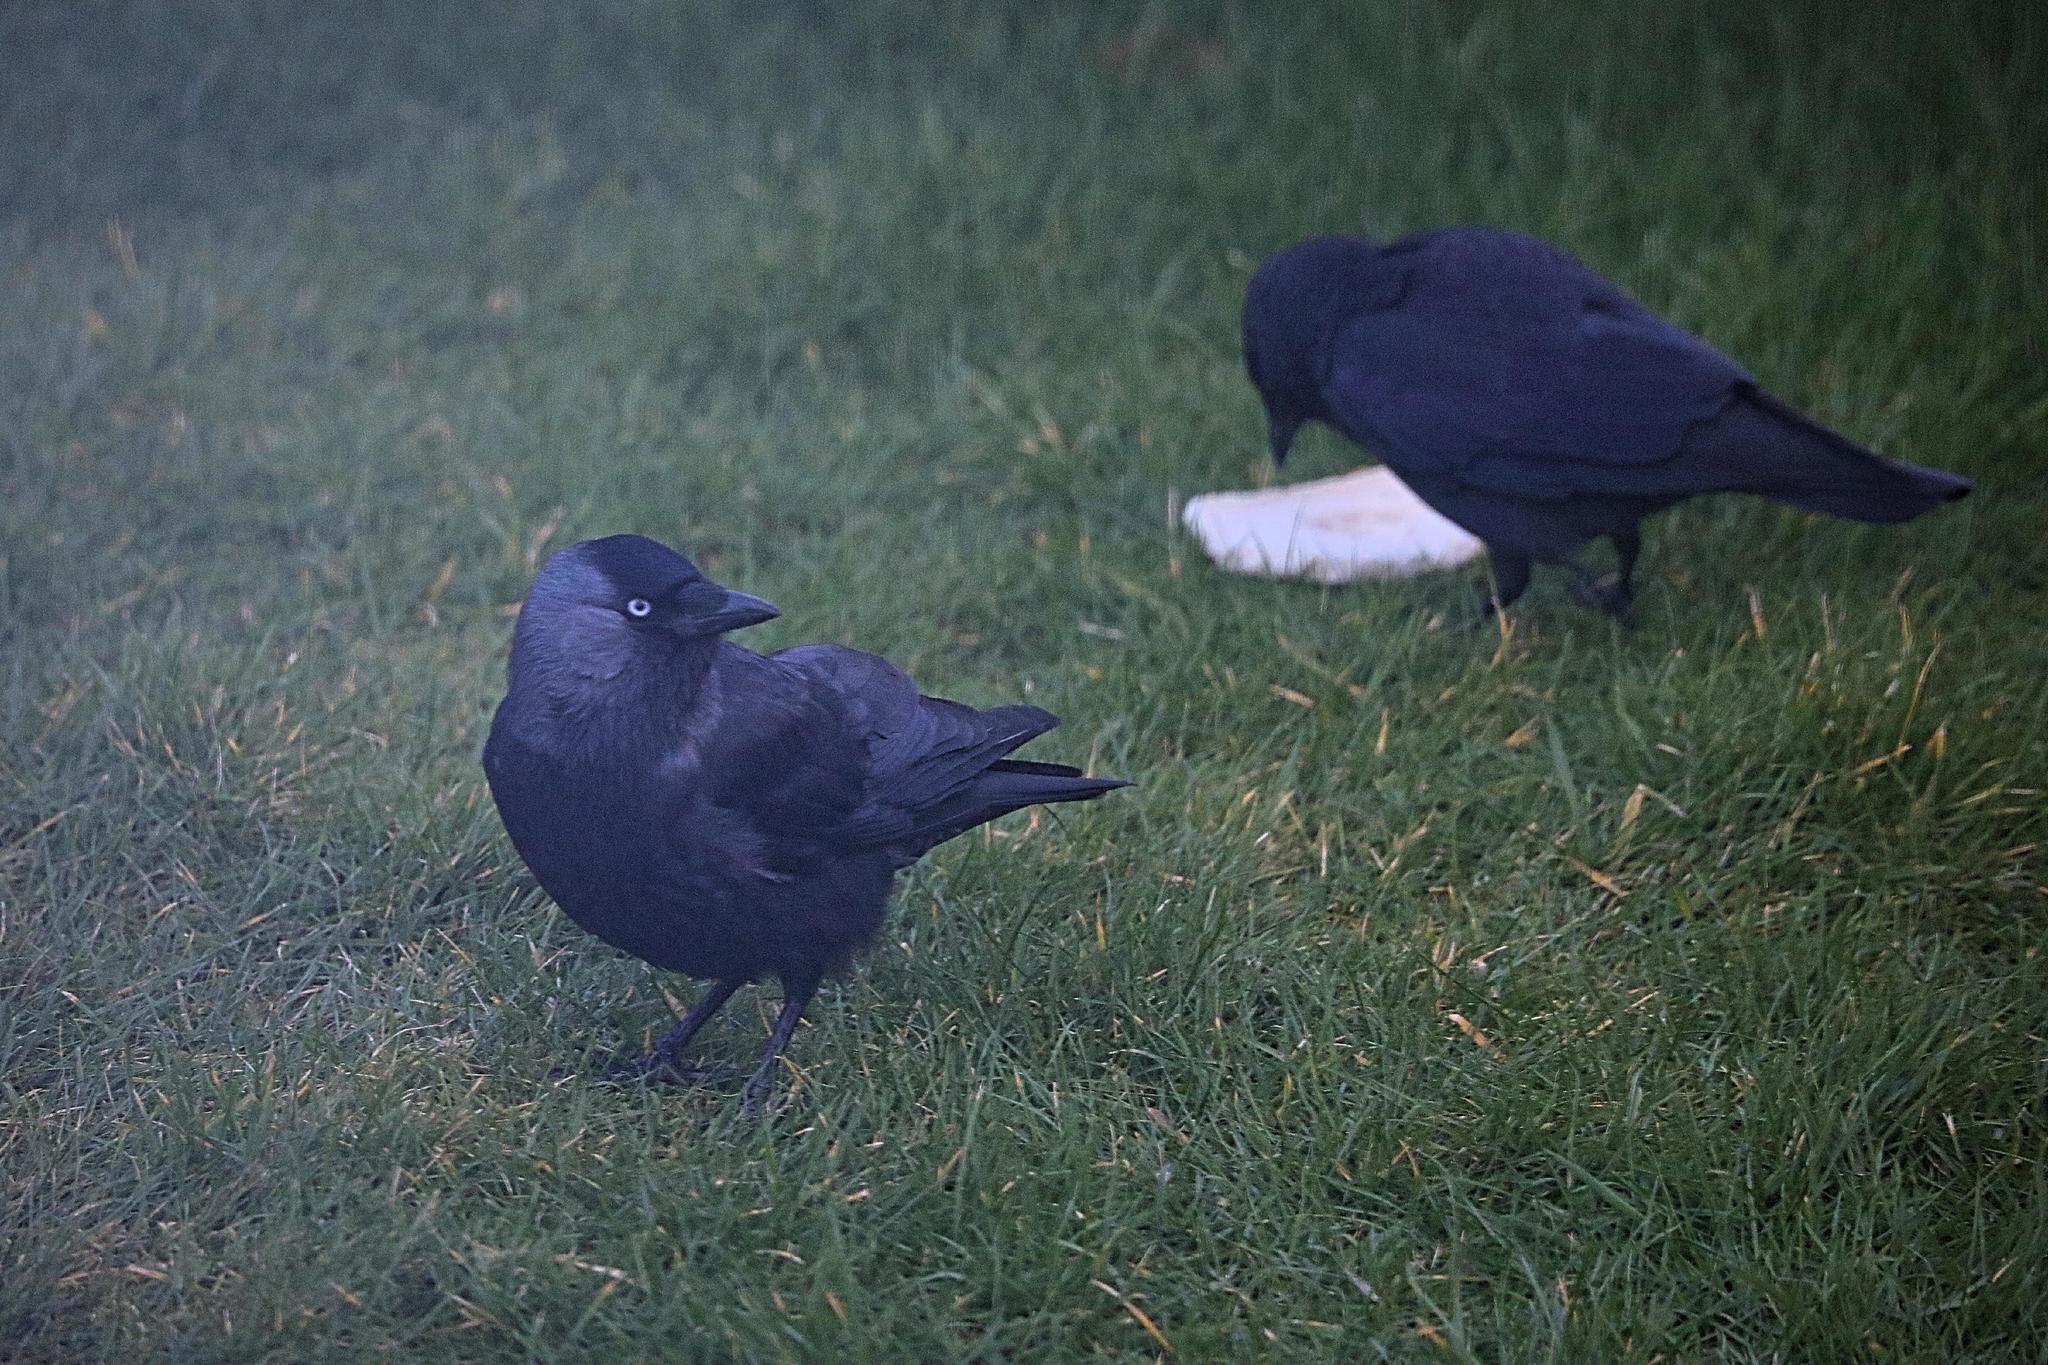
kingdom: Animalia
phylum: Chordata
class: Aves
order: Passeriformes
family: Corvidae
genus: Coloeus
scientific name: Coloeus monedula
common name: Western jackdaw
